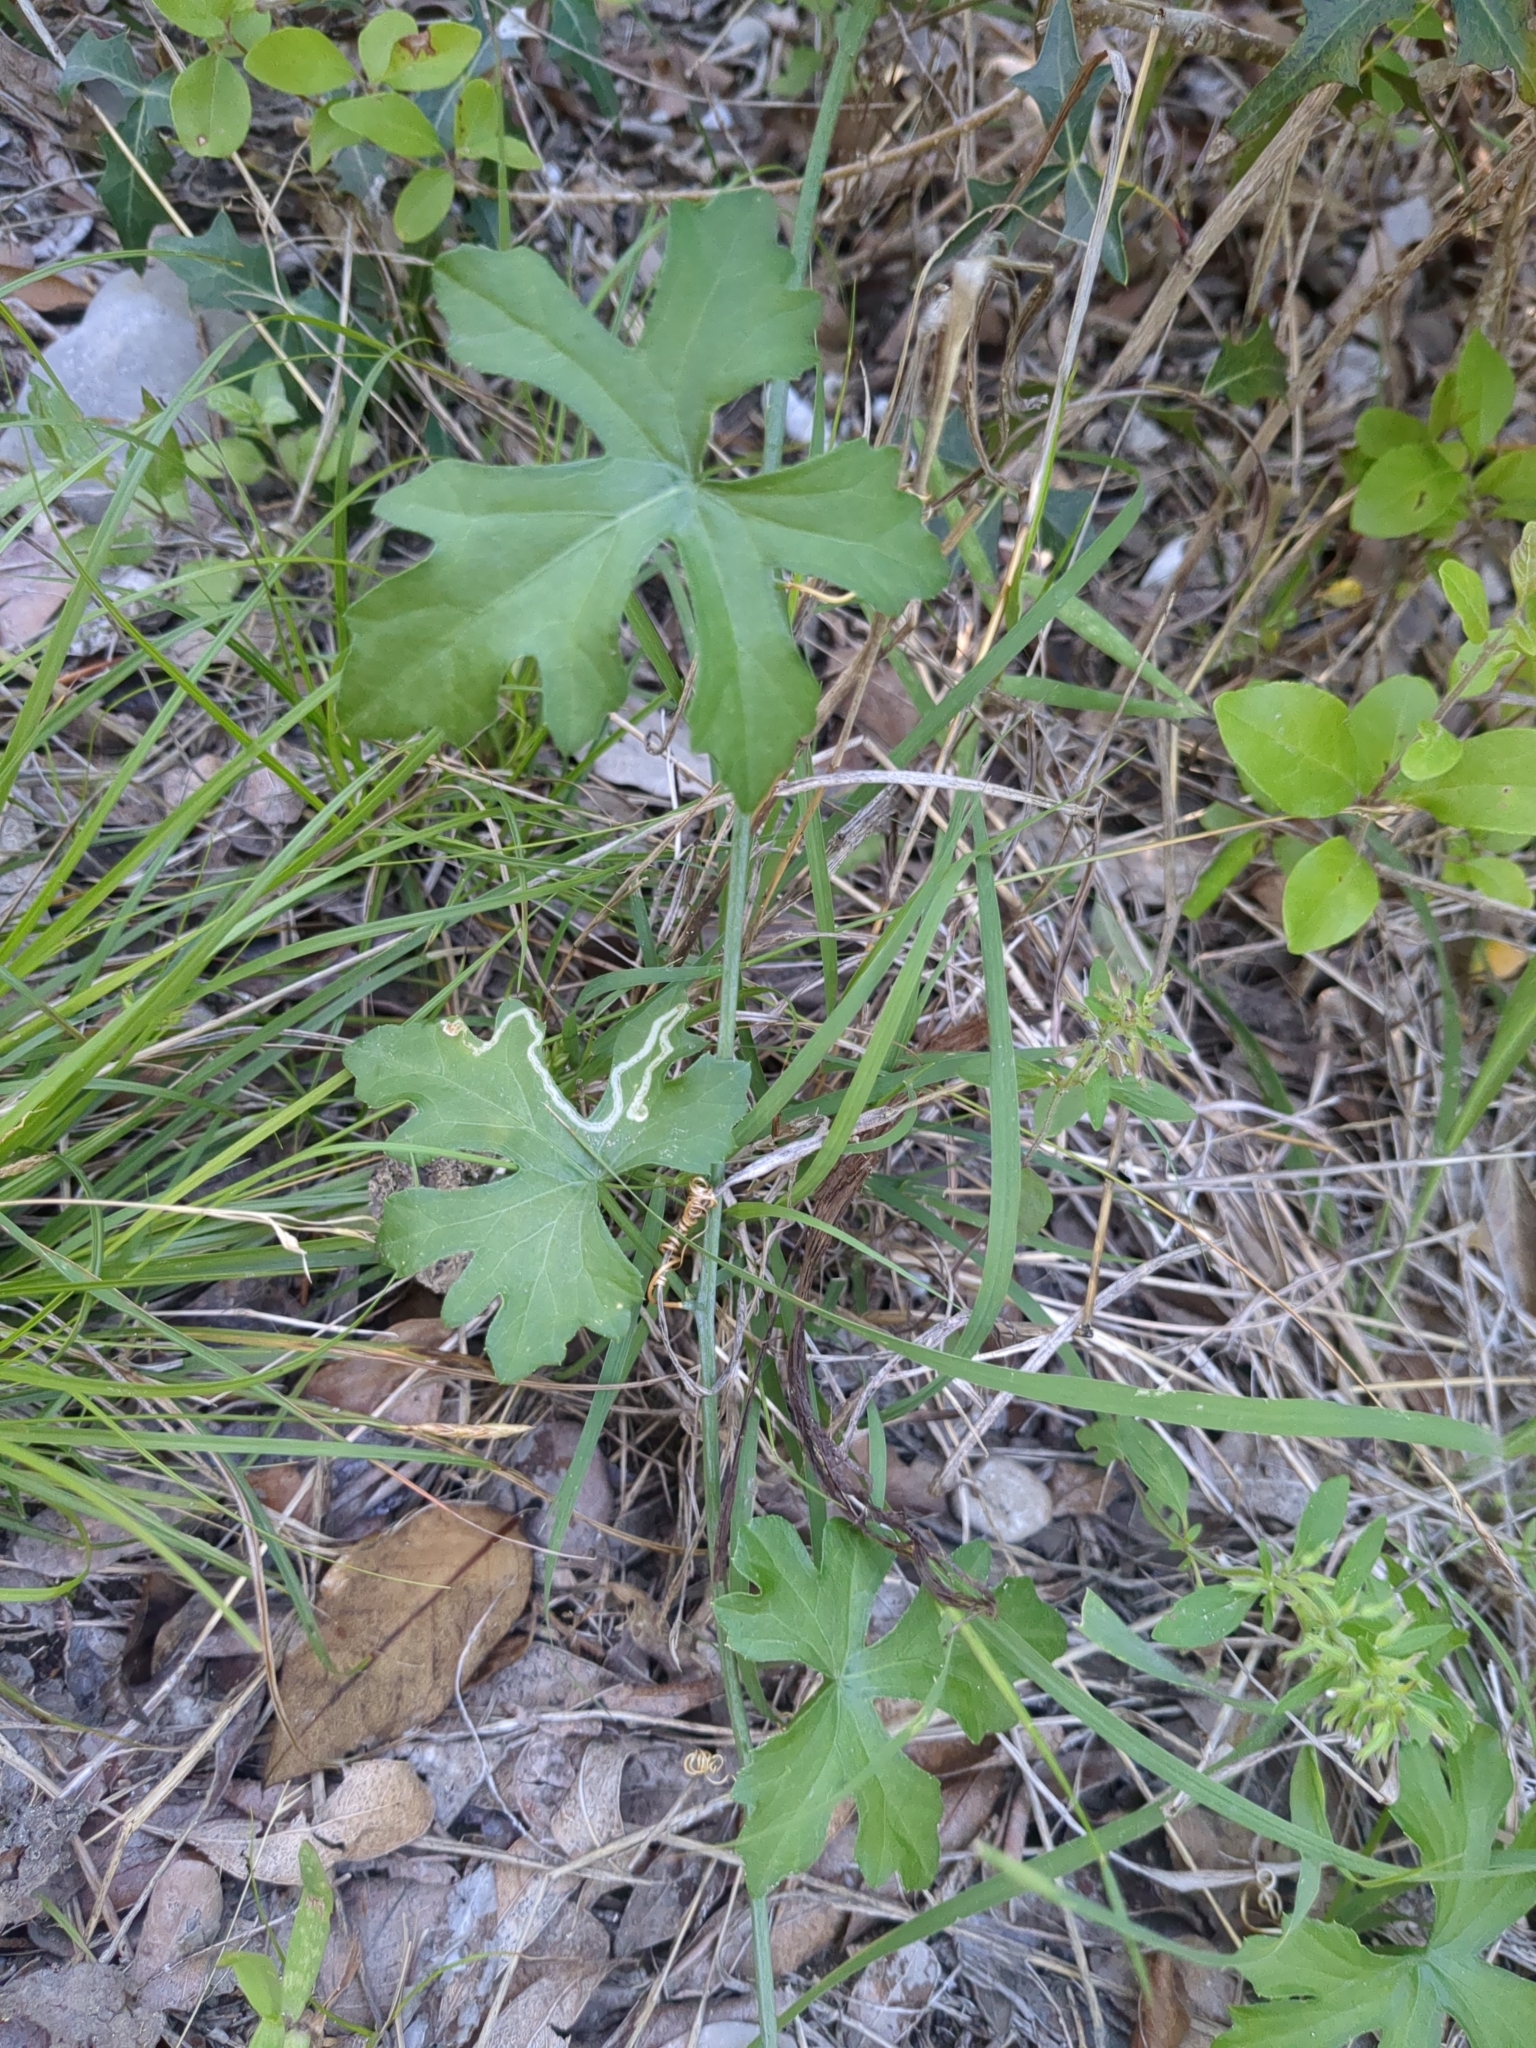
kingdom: Plantae
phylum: Tracheophyta
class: Magnoliopsida
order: Cucurbitales
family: Cucurbitaceae
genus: Ibervillea
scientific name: Ibervillea lindheimeri
